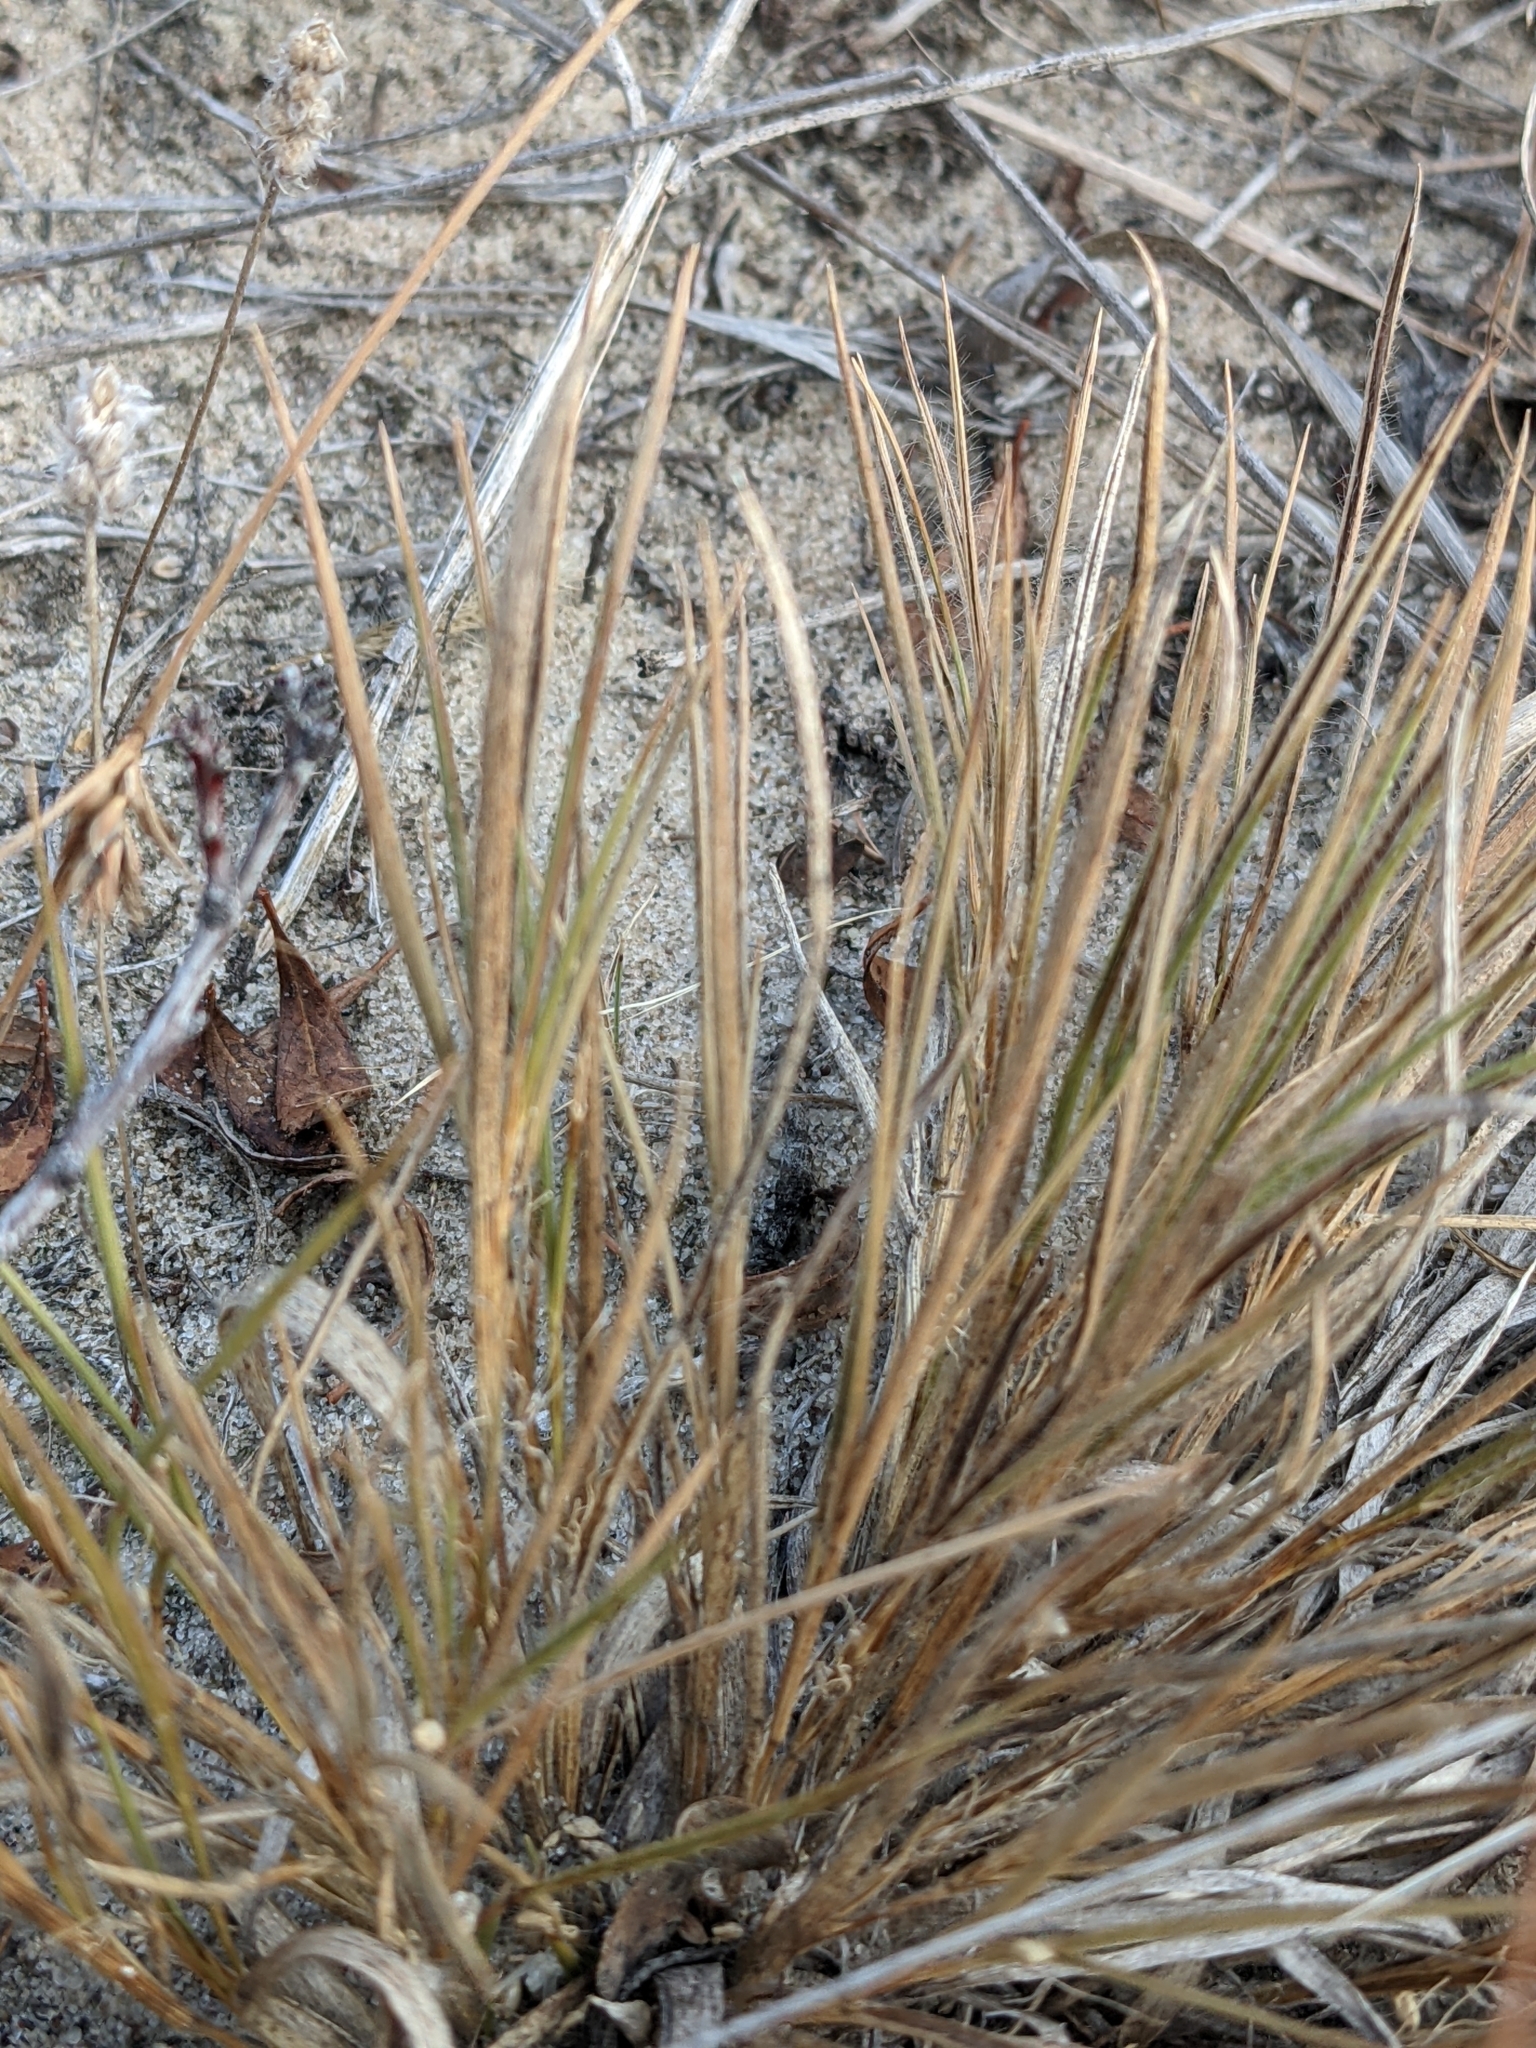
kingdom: Plantae
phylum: Tracheophyta
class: Liliopsida
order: Poales
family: Poaceae
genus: Bouteloua
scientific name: Bouteloua hirsuta
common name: Hairy grama
